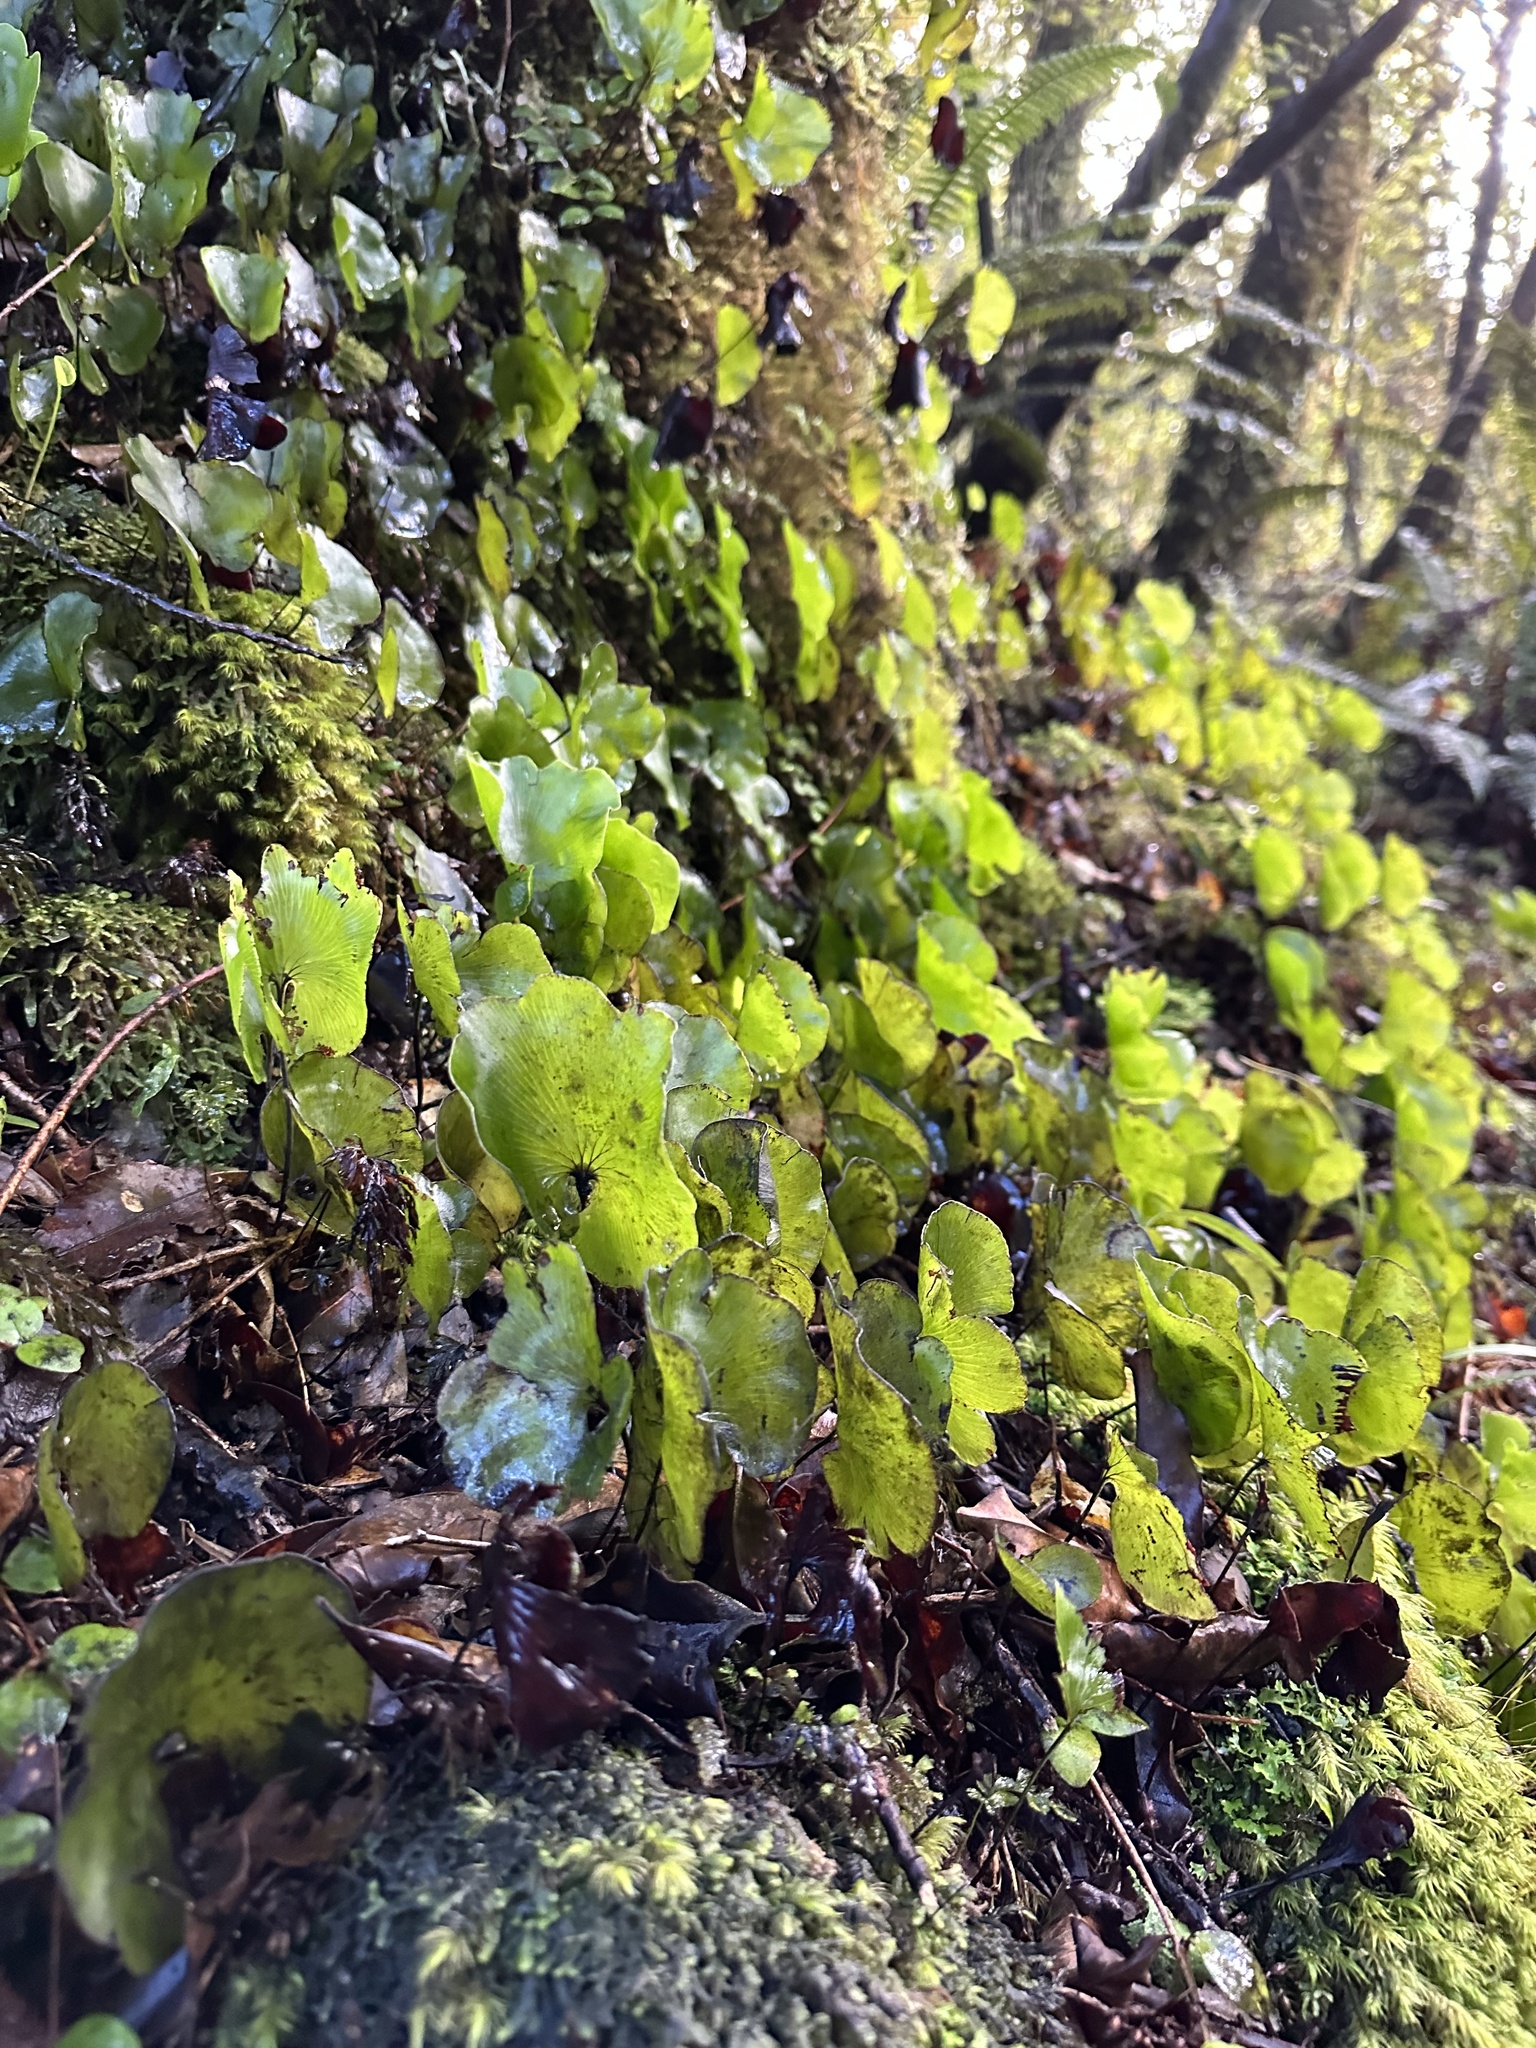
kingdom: Plantae
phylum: Tracheophyta
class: Polypodiopsida
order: Hymenophyllales
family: Hymenophyllaceae
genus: Hymenophyllum
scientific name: Hymenophyllum nephrophyllum
